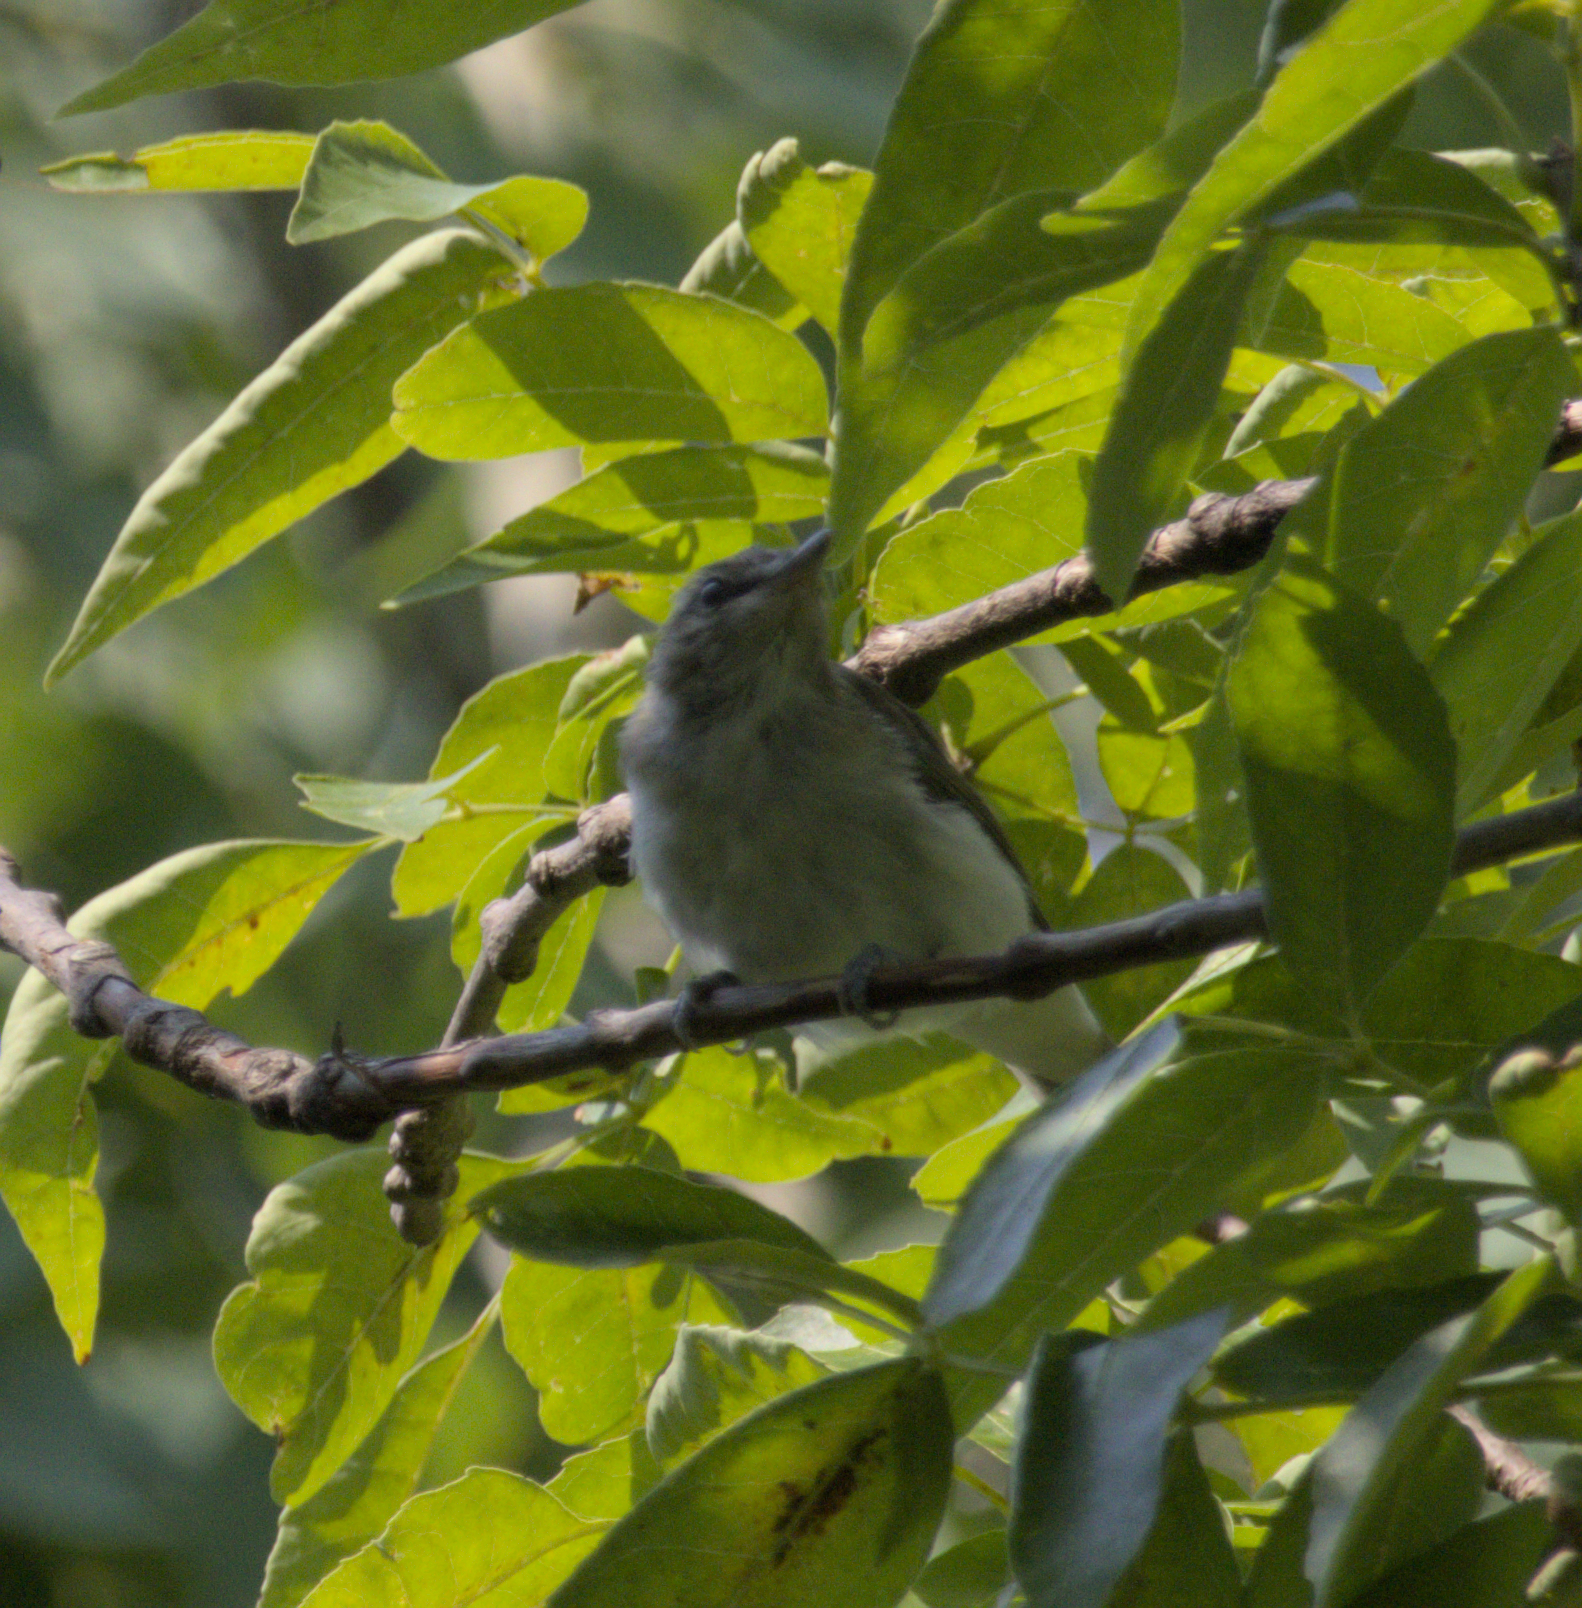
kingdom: Animalia
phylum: Chordata
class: Aves
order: Passeriformes
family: Parulidae
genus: Leiothlypis
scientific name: Leiothlypis peregrina
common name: Tennessee warbler
